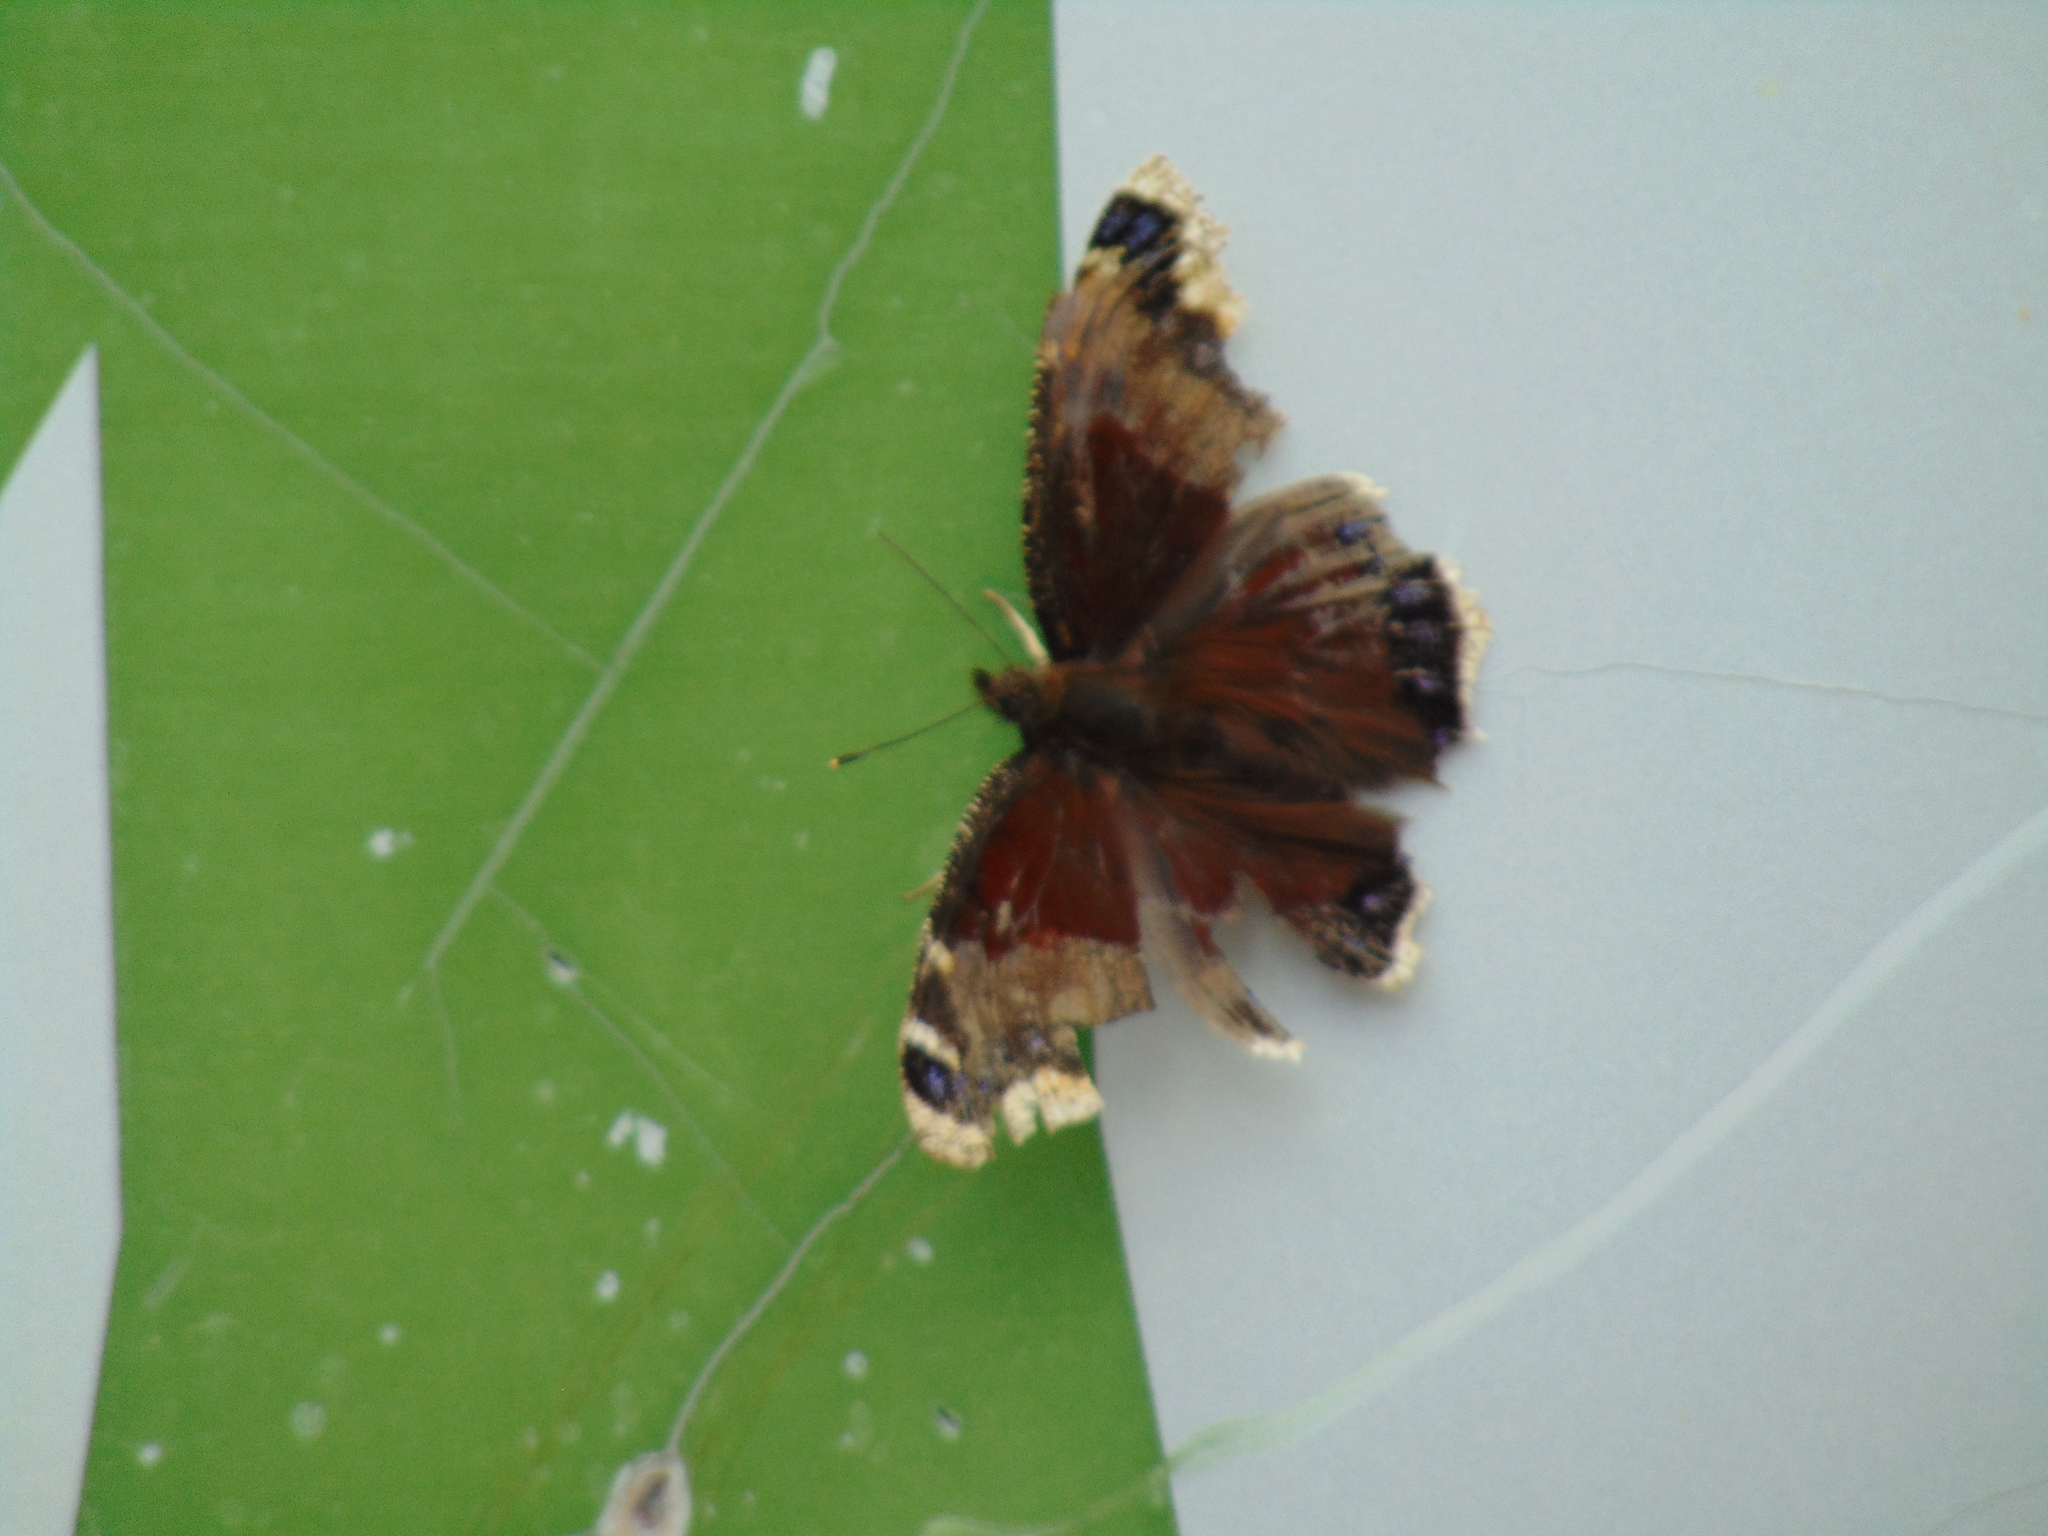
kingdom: Animalia
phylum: Arthropoda
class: Insecta
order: Lepidoptera
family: Nymphalidae
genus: Nymphalis
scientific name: Nymphalis antiopa
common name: Camberwell beauty
